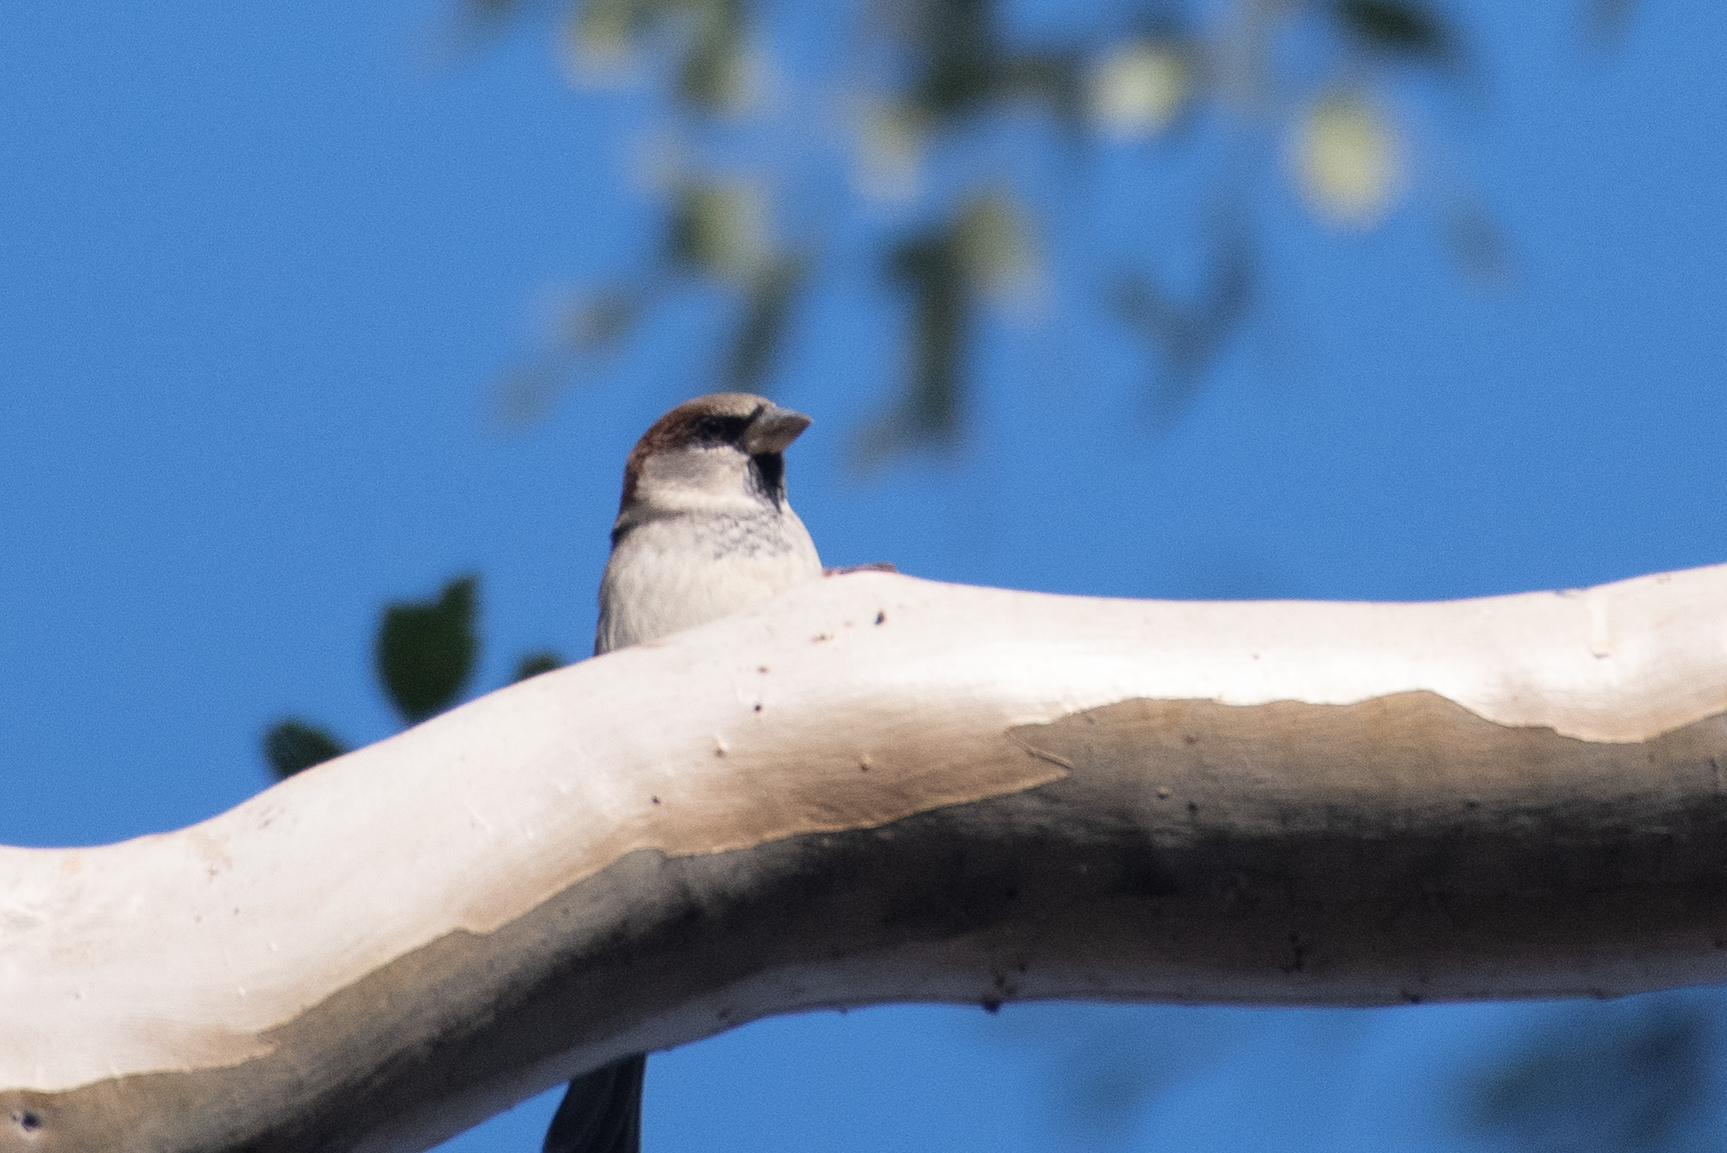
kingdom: Animalia
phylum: Chordata
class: Aves
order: Passeriformes
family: Passeridae
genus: Passer
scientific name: Passer domesticus
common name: House sparrow
